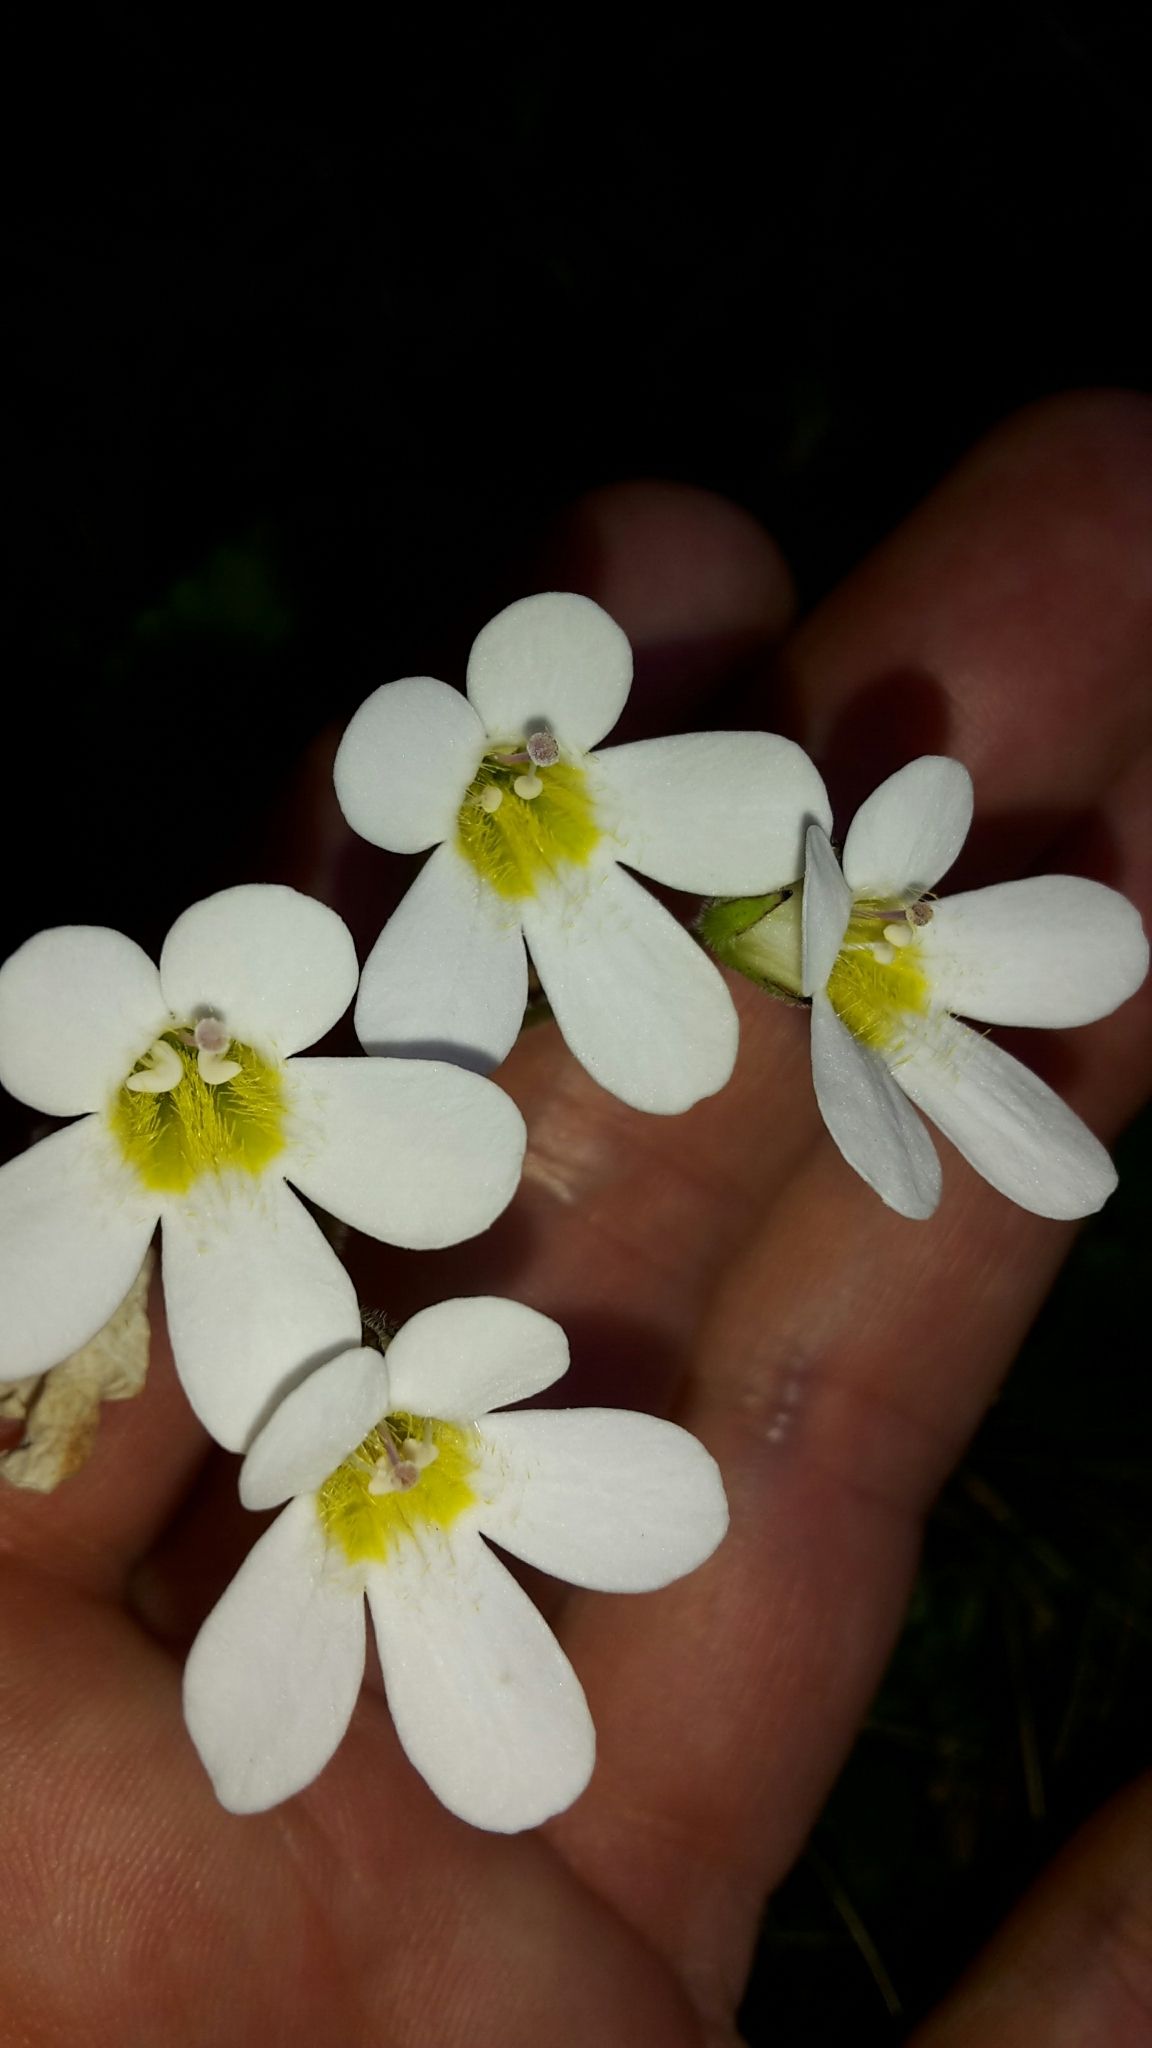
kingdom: Plantae
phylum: Tracheophyta
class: Magnoliopsida
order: Lamiales
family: Plantaginaceae
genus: Ourisia
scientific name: Ourisia macrophylla
